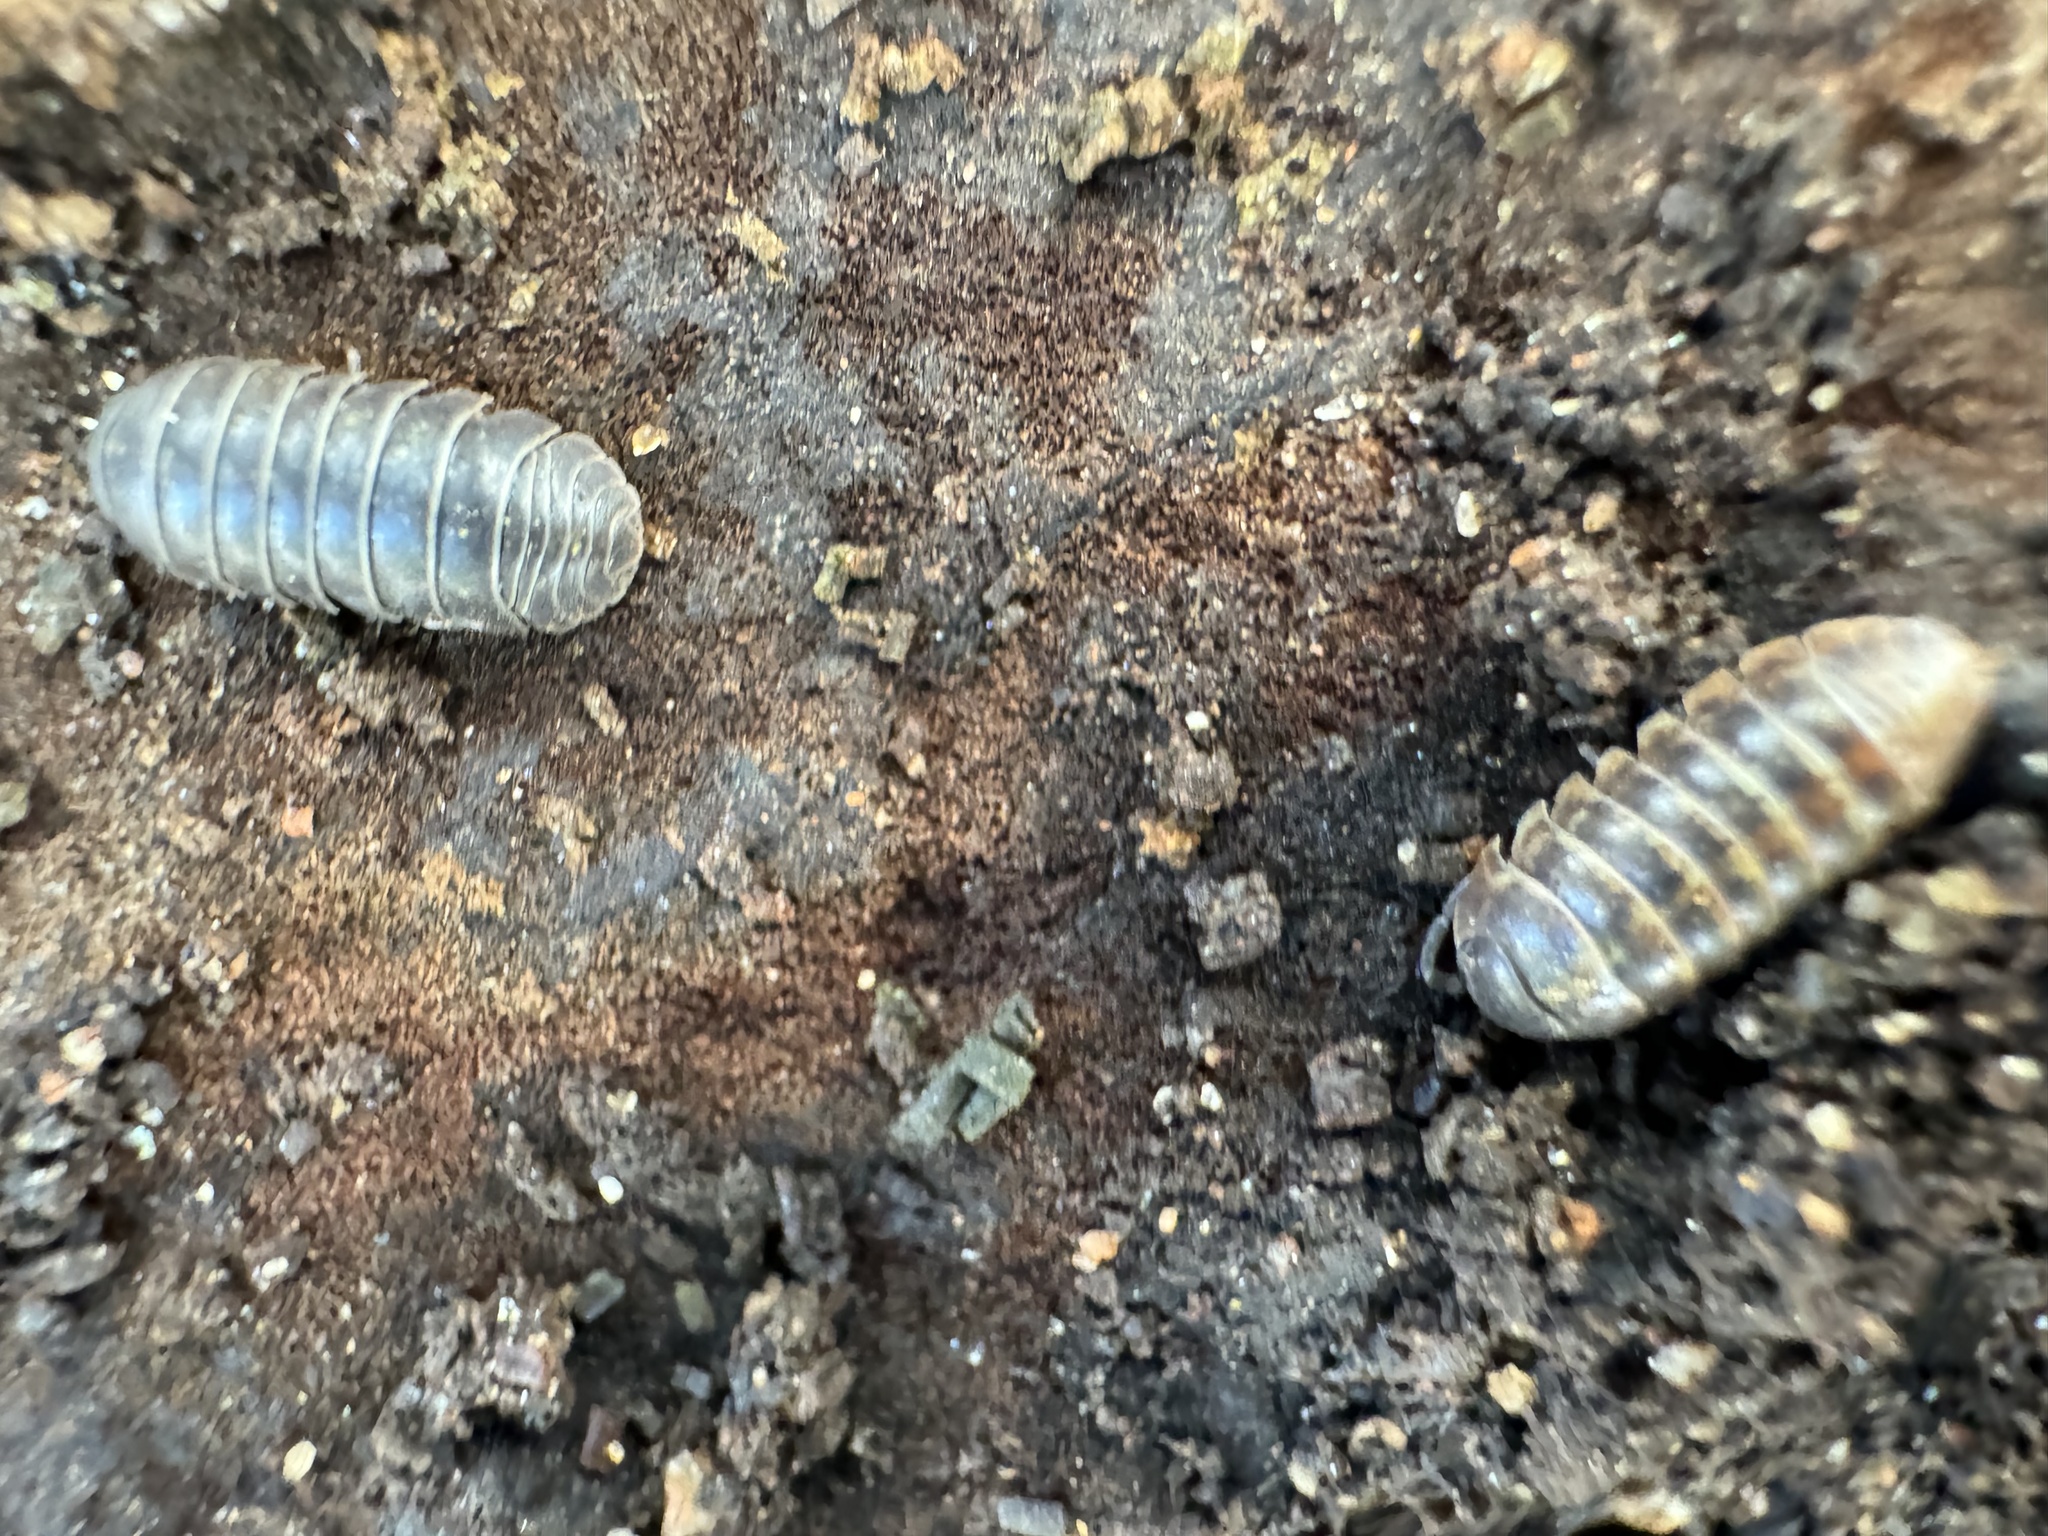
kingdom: Animalia
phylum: Arthropoda
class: Malacostraca
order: Isopoda
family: Armadillidiidae
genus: Armadillidium
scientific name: Armadillidium vulgare
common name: Common pill woodlouse
